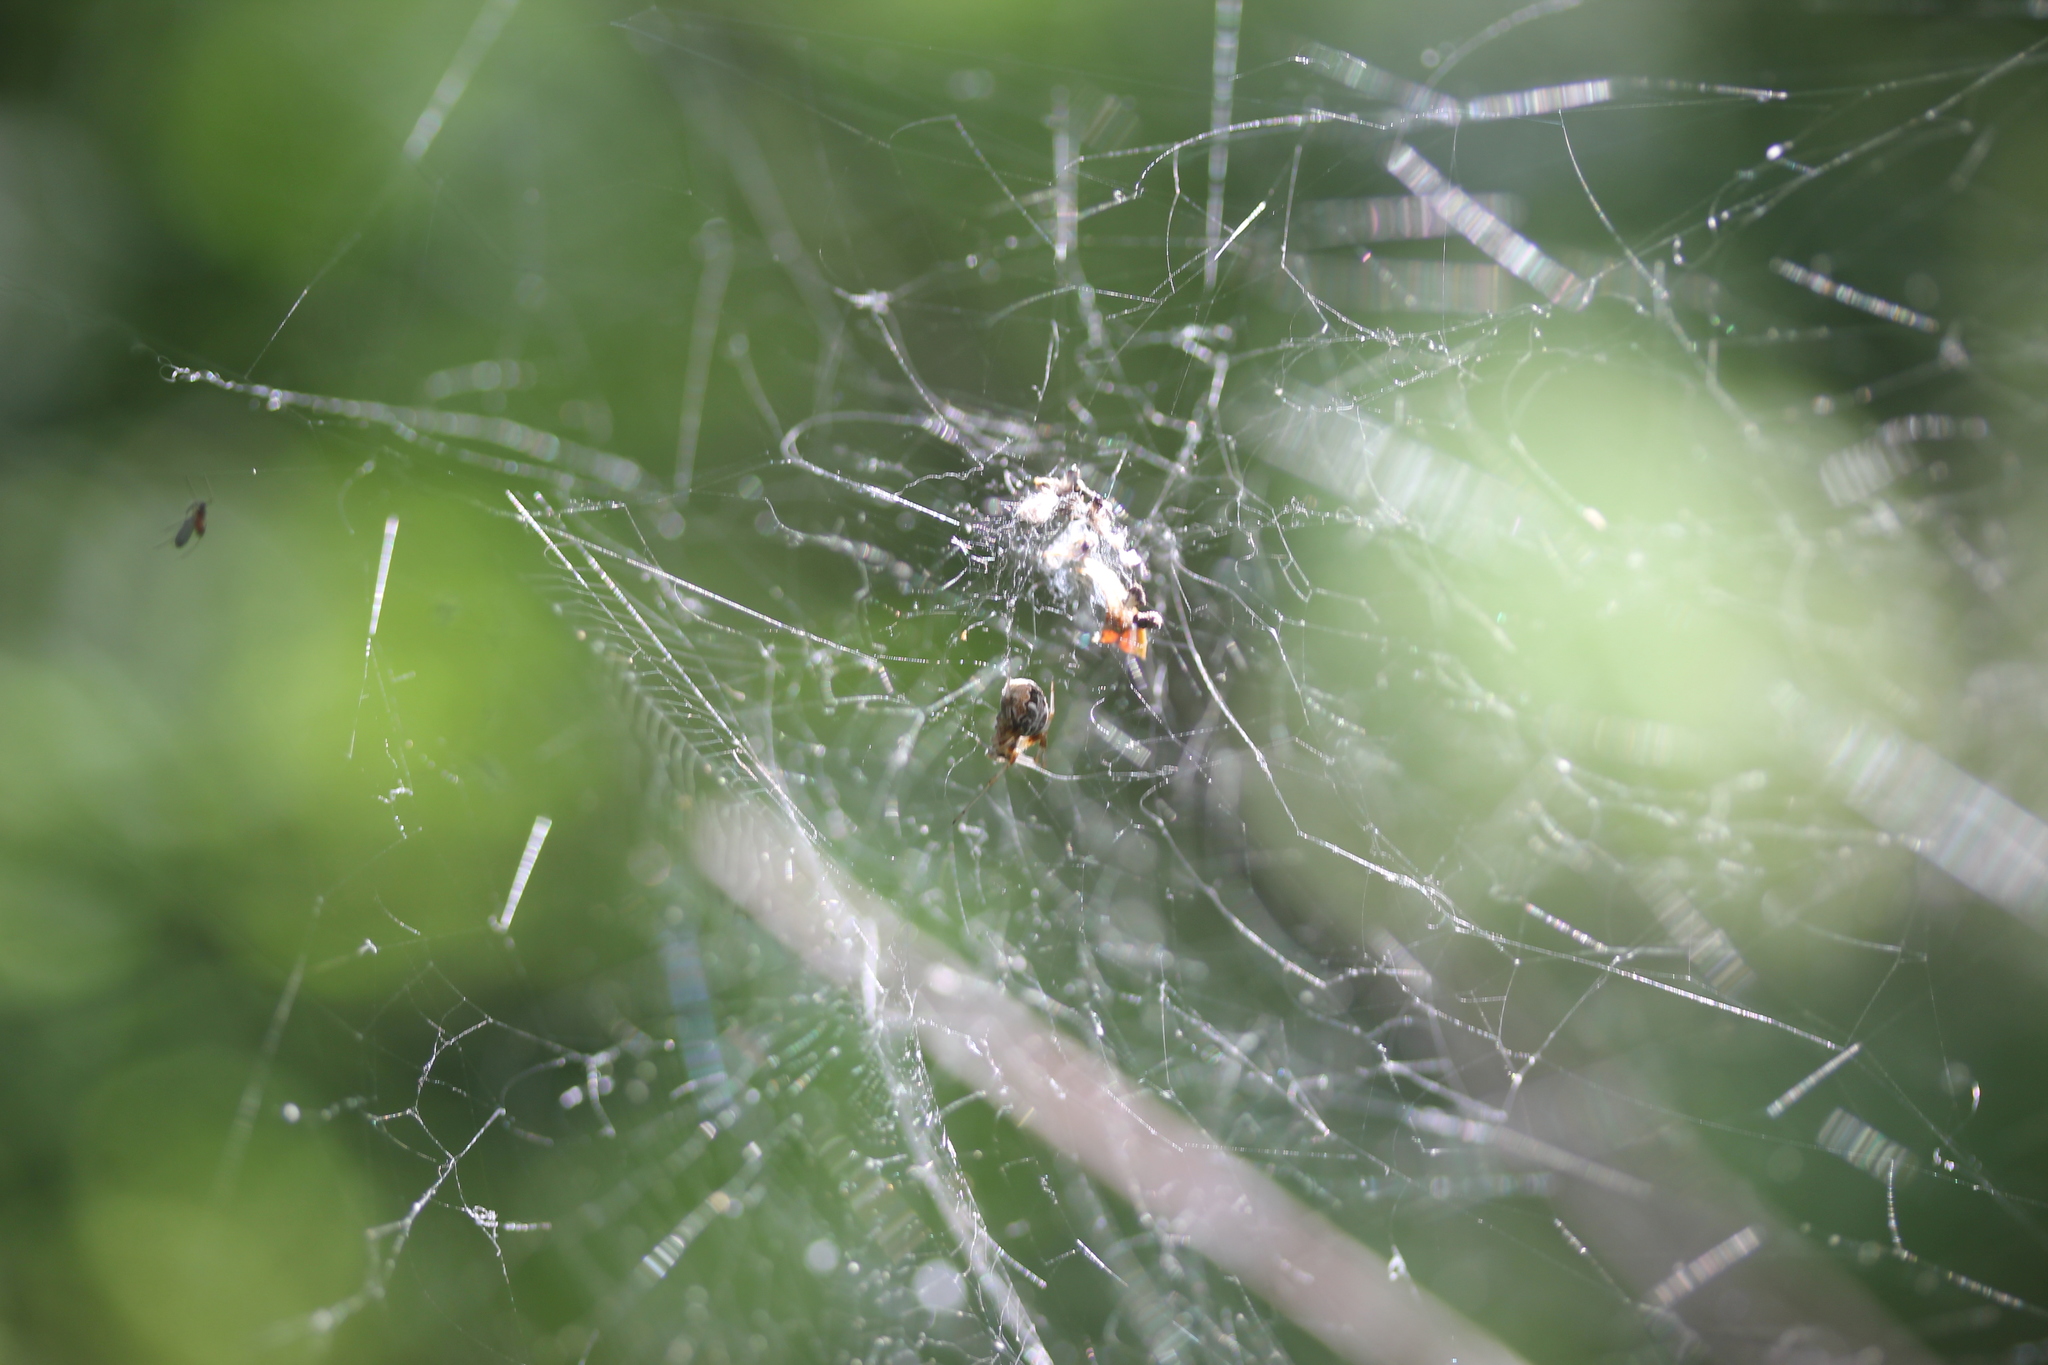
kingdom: Animalia
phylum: Arthropoda
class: Arachnida
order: Araneae
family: Araneidae
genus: Metepeira
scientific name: Metepeira labyrinthea
